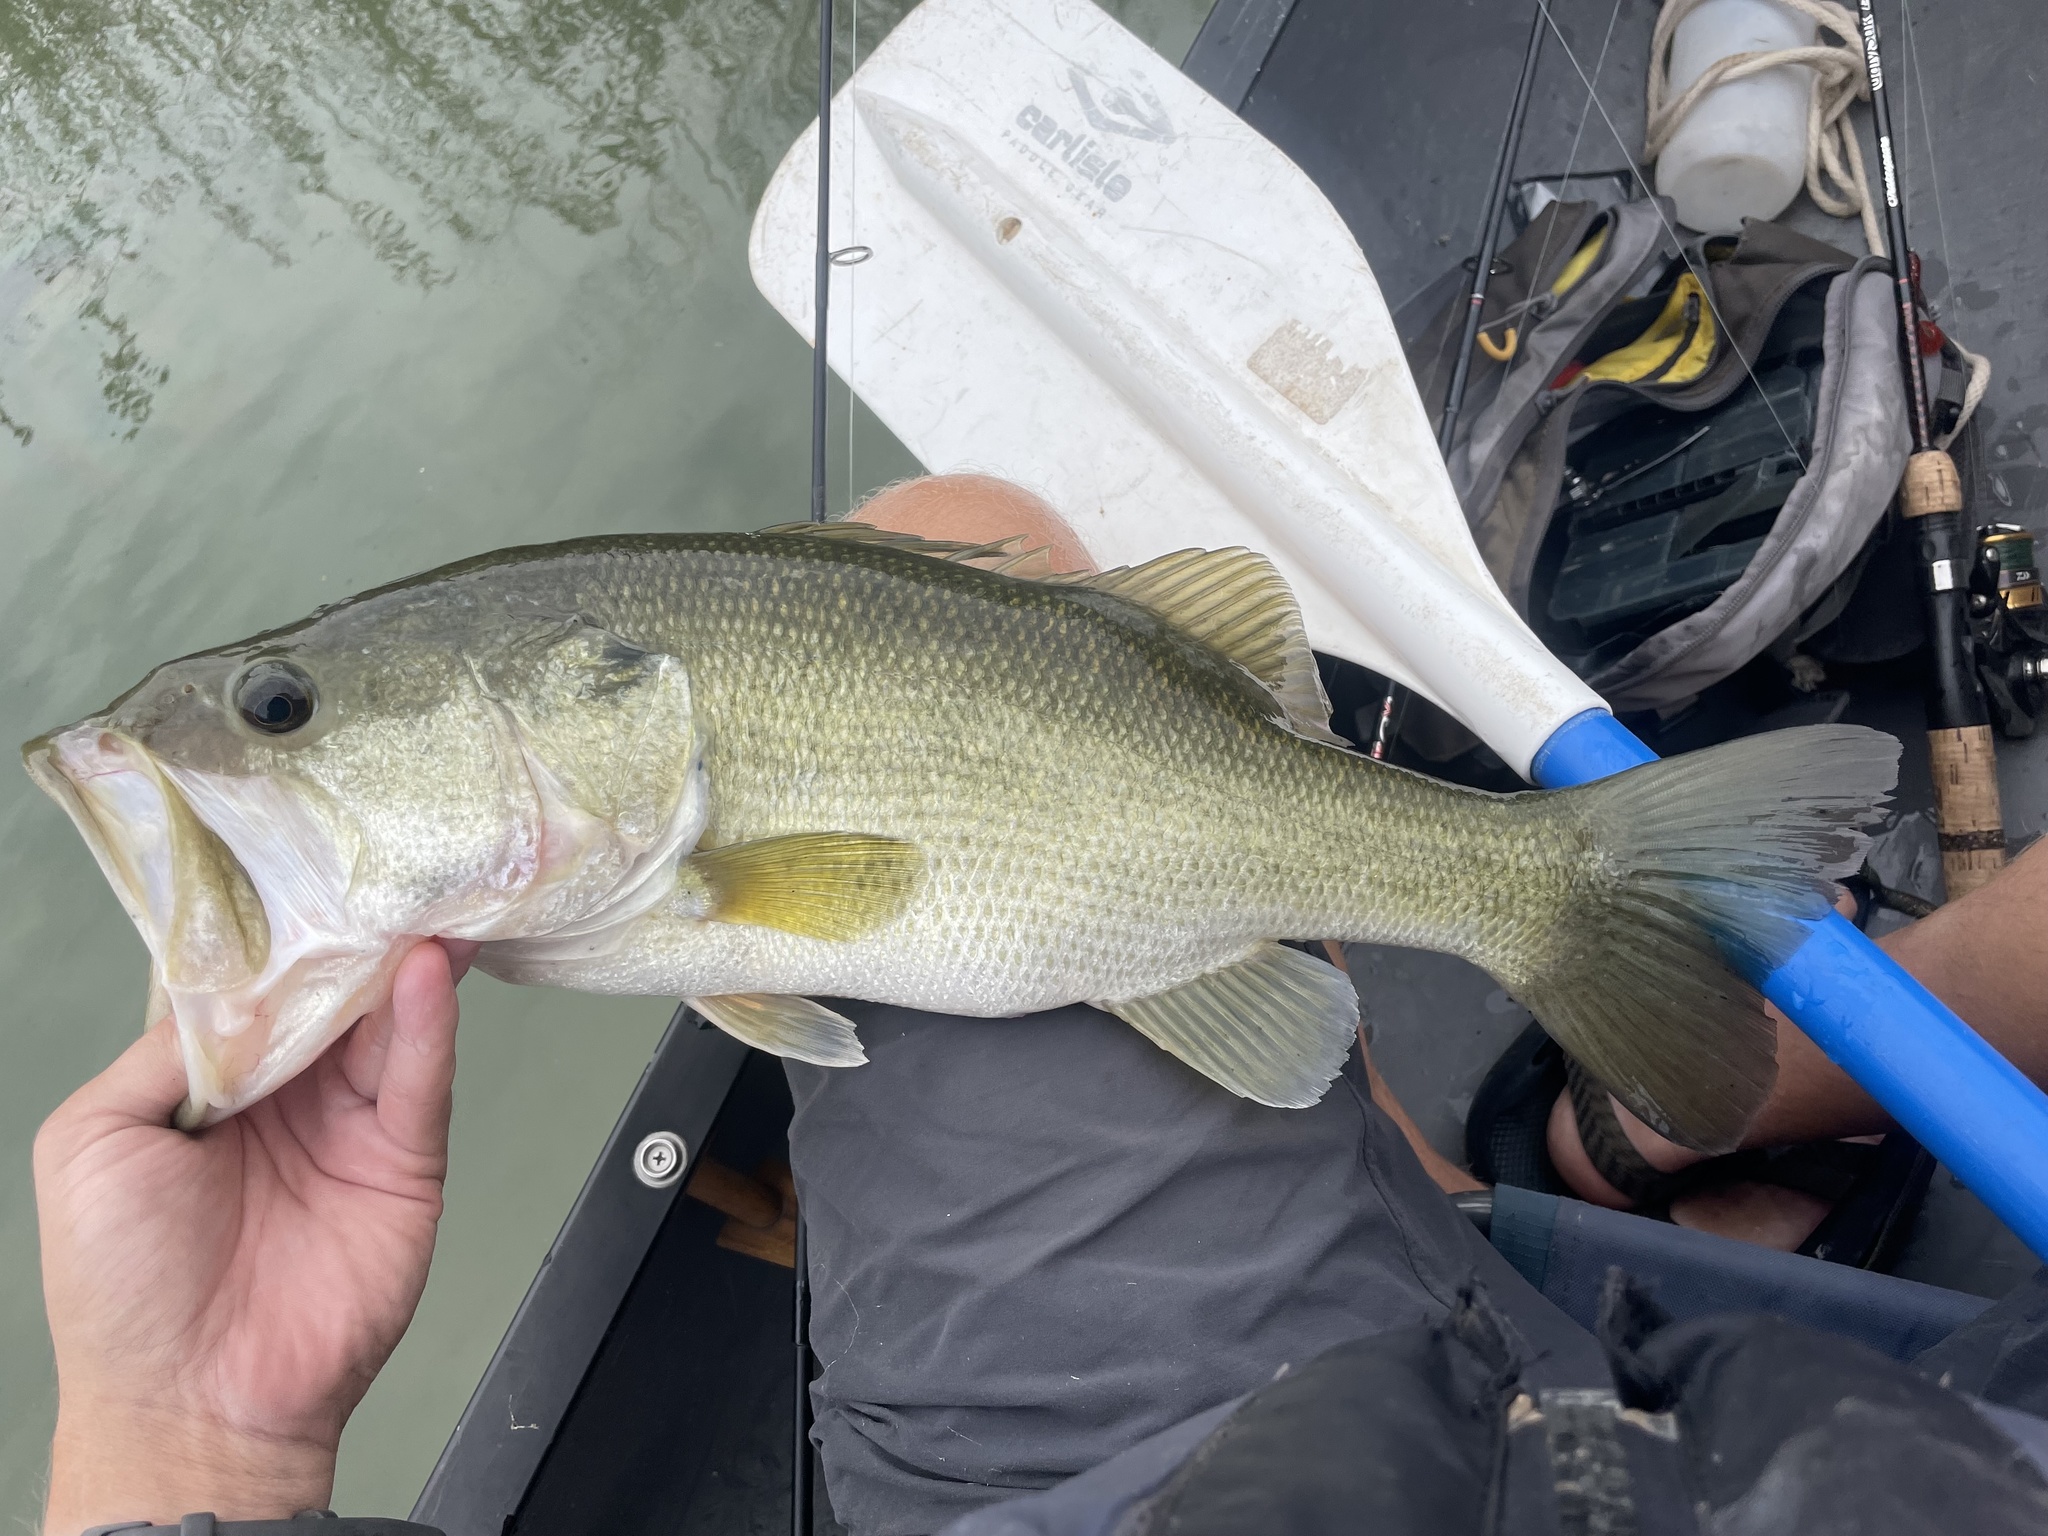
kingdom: Animalia
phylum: Chordata
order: Perciformes
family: Centrarchidae
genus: Micropterus
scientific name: Micropterus
